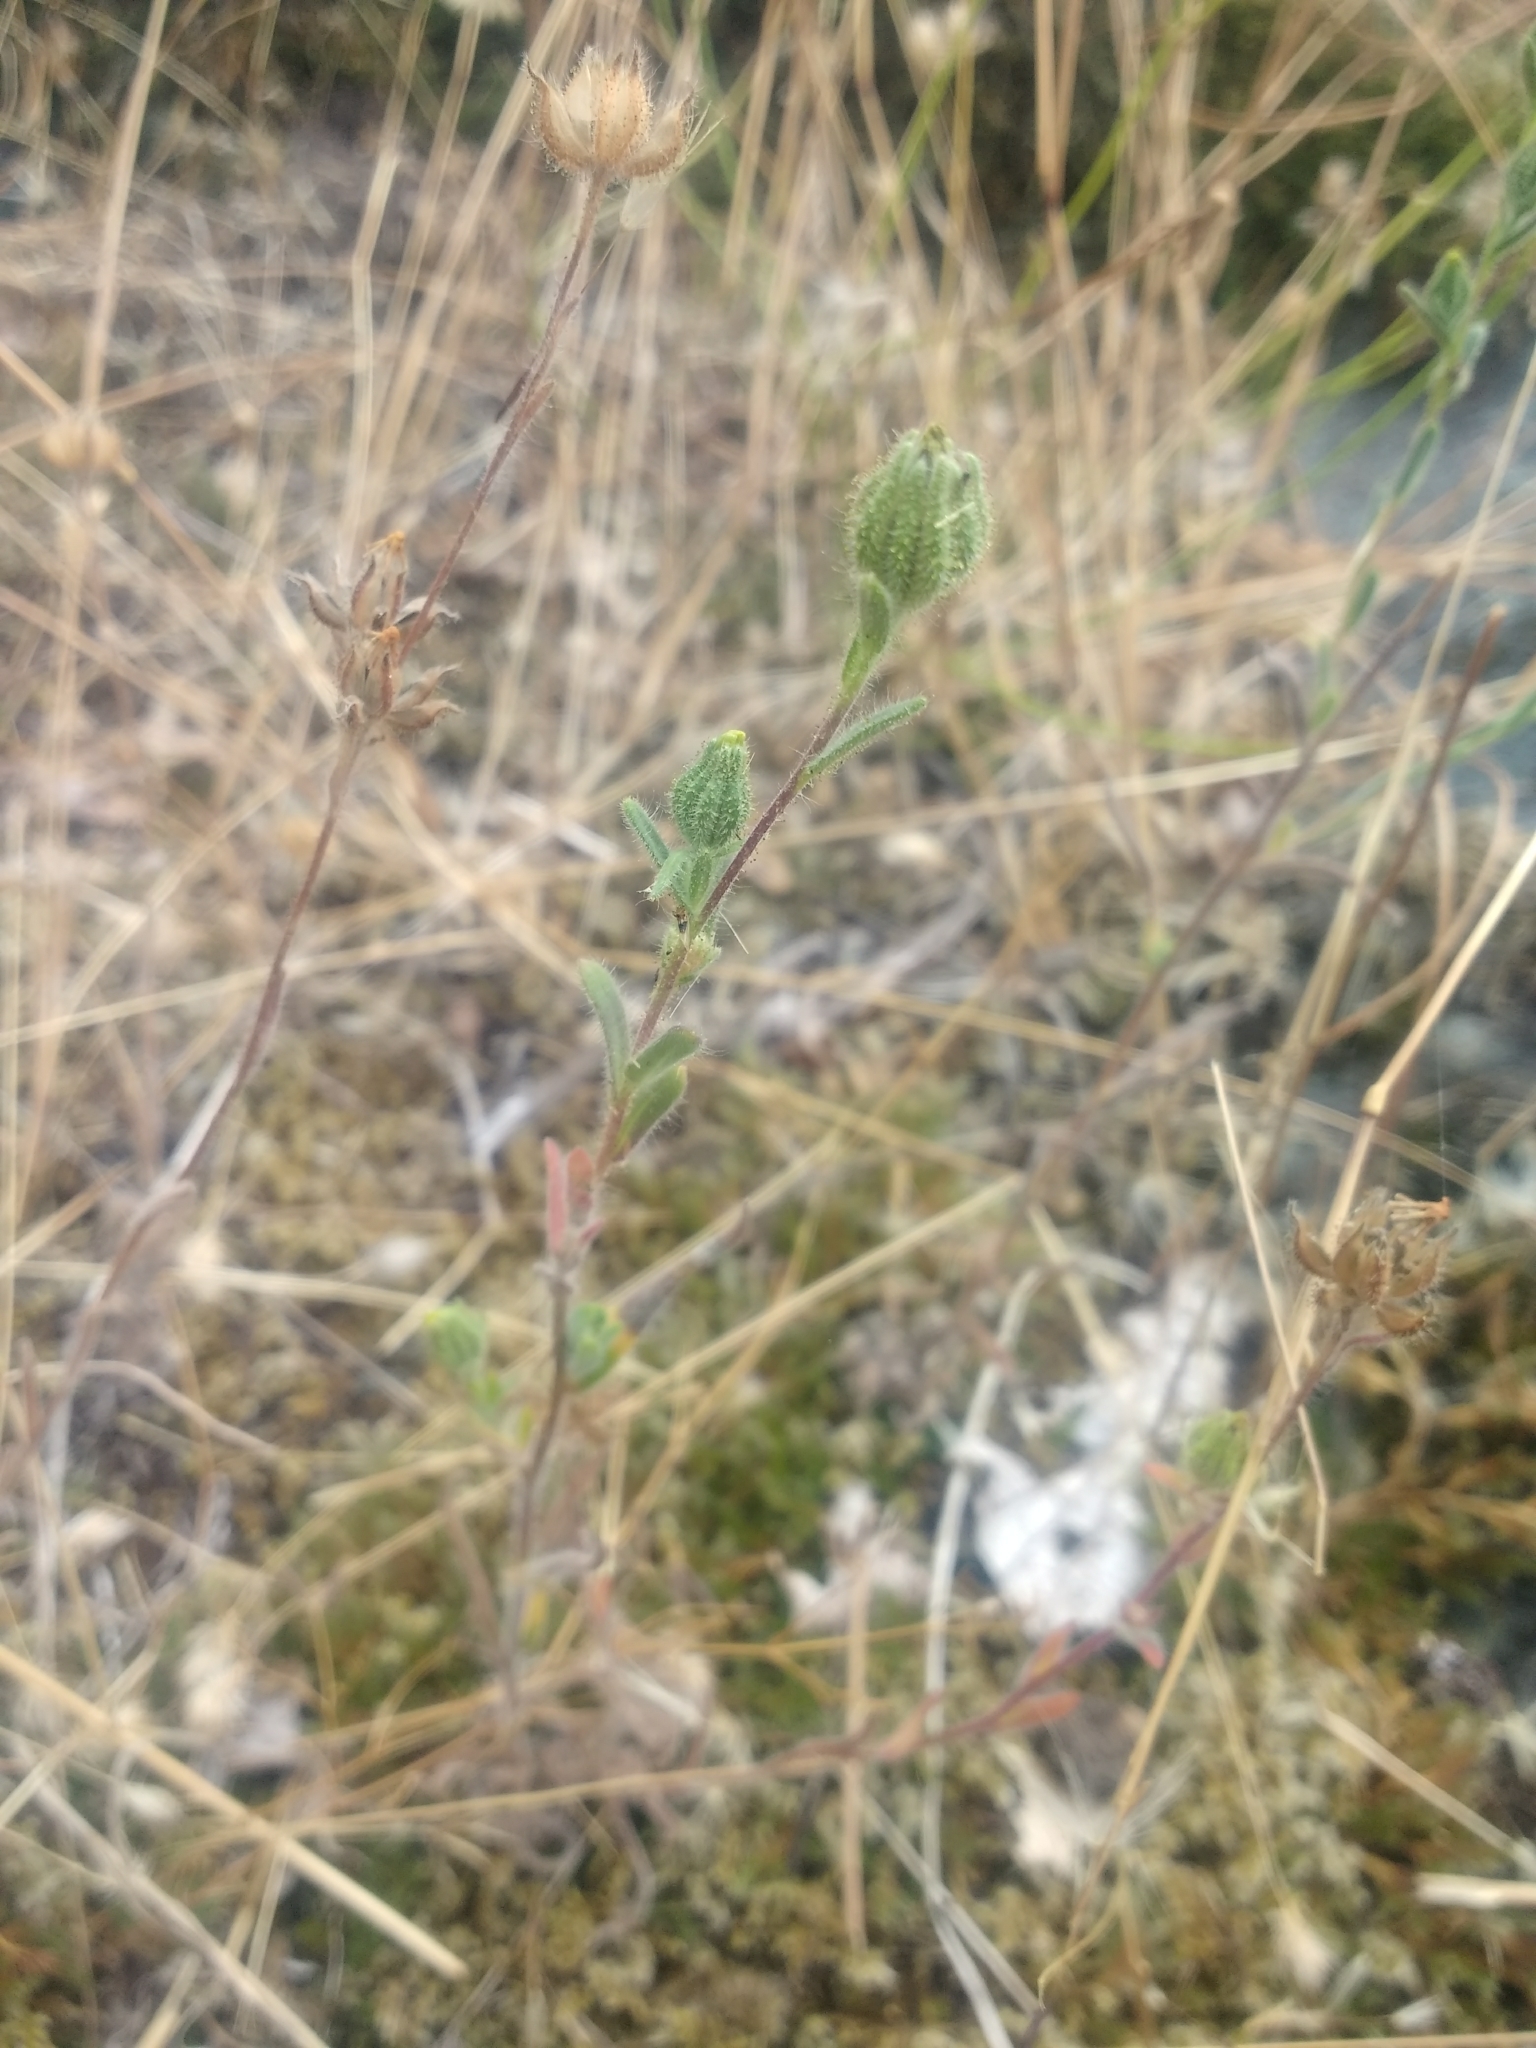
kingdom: Plantae
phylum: Tracheophyta
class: Magnoliopsida
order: Asterales
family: Asteraceae
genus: Madia
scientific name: Madia gracilis
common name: Grassy tarweed
